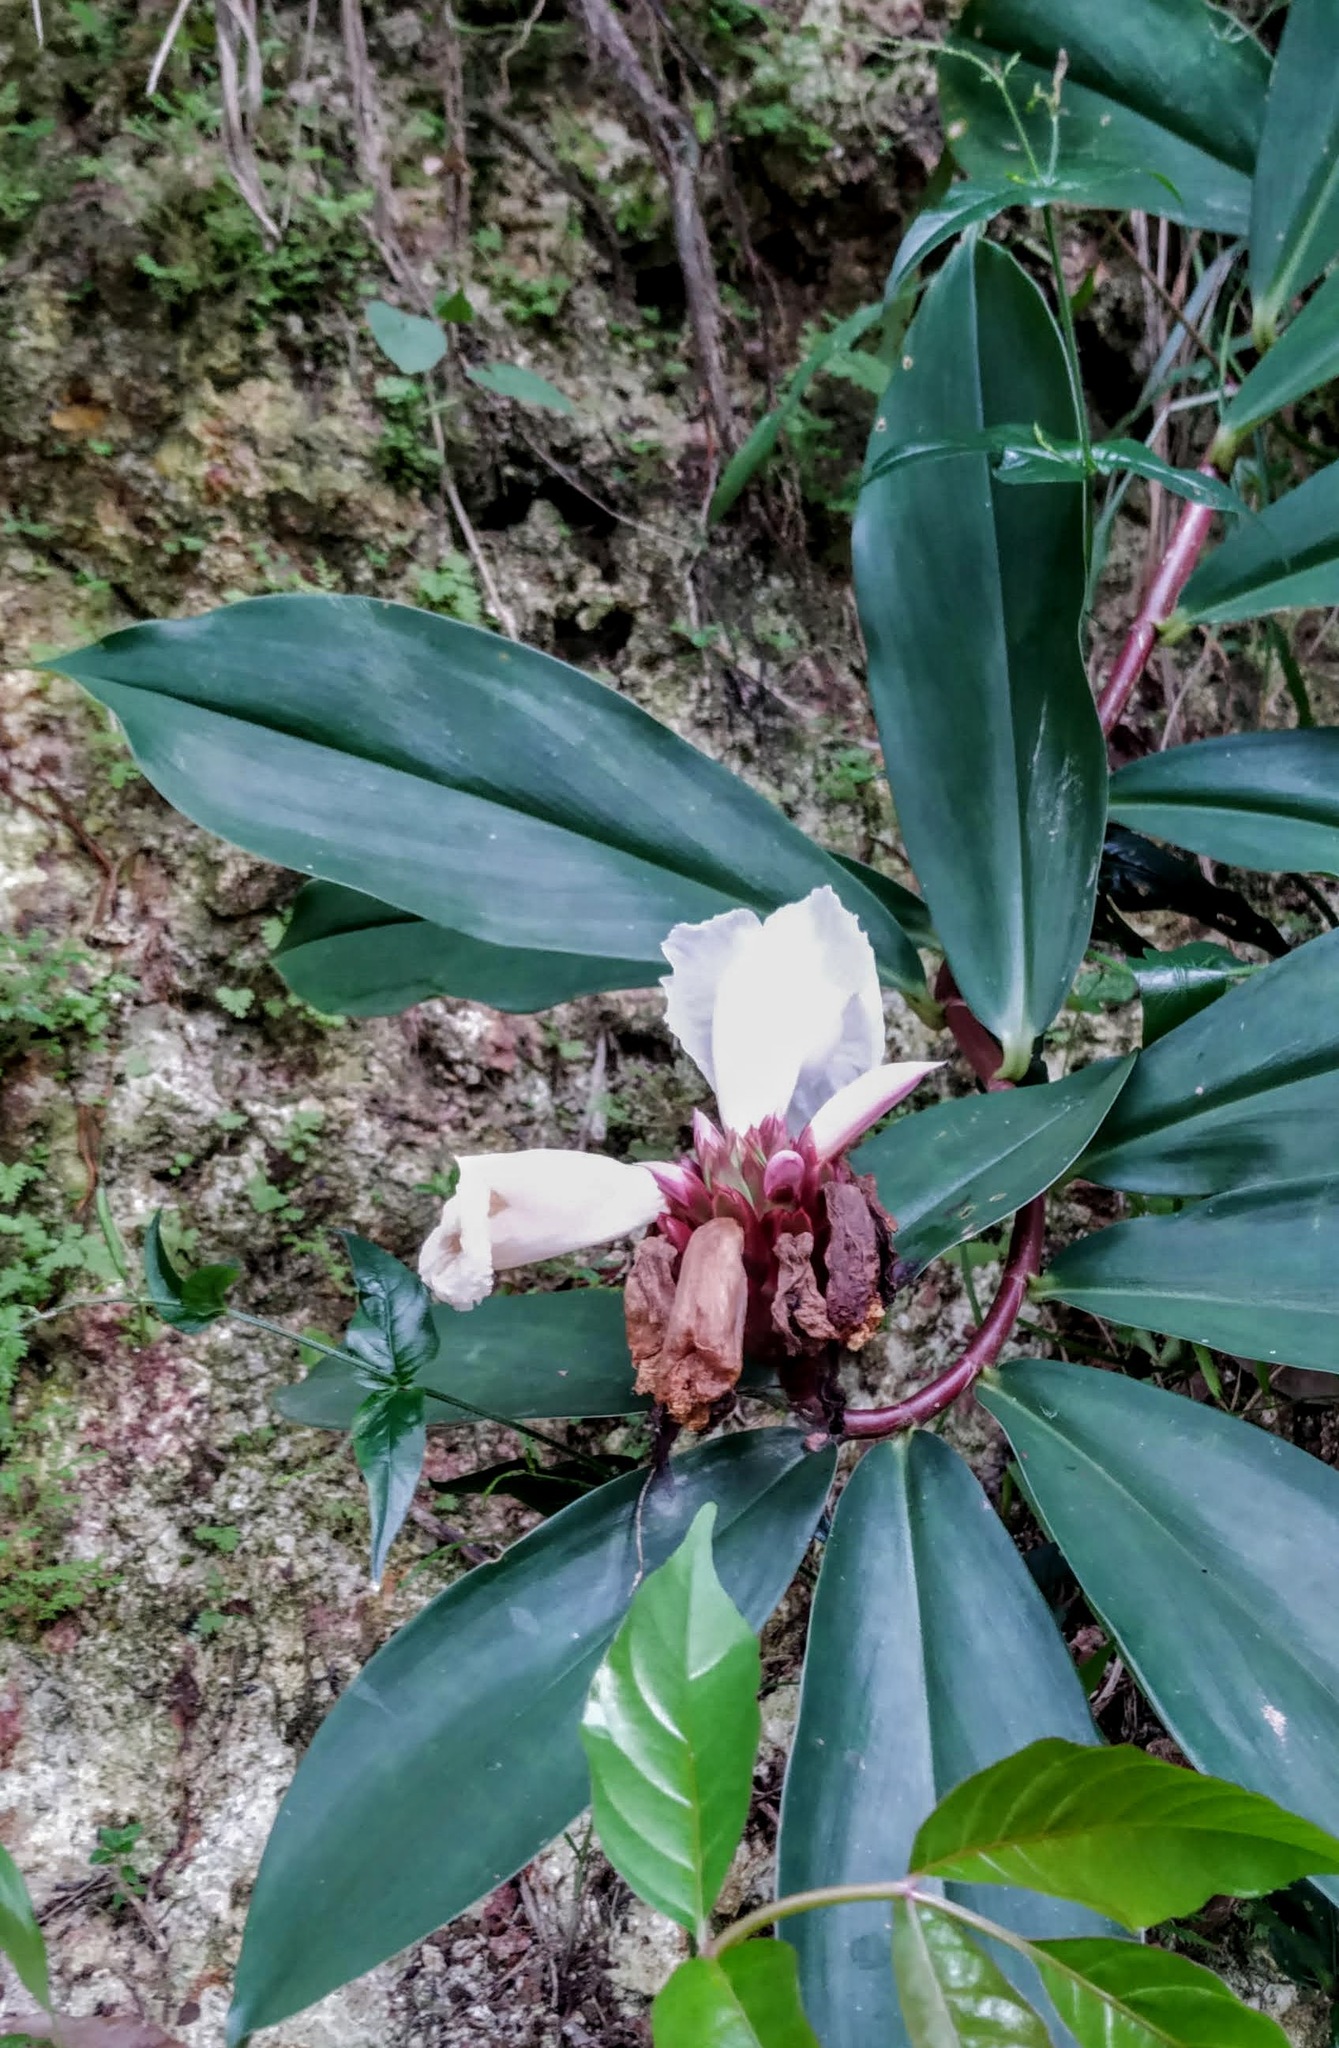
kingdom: Plantae
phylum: Tracheophyta
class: Liliopsida
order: Zingiberales
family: Costaceae
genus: Hellenia
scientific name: Hellenia speciosa
